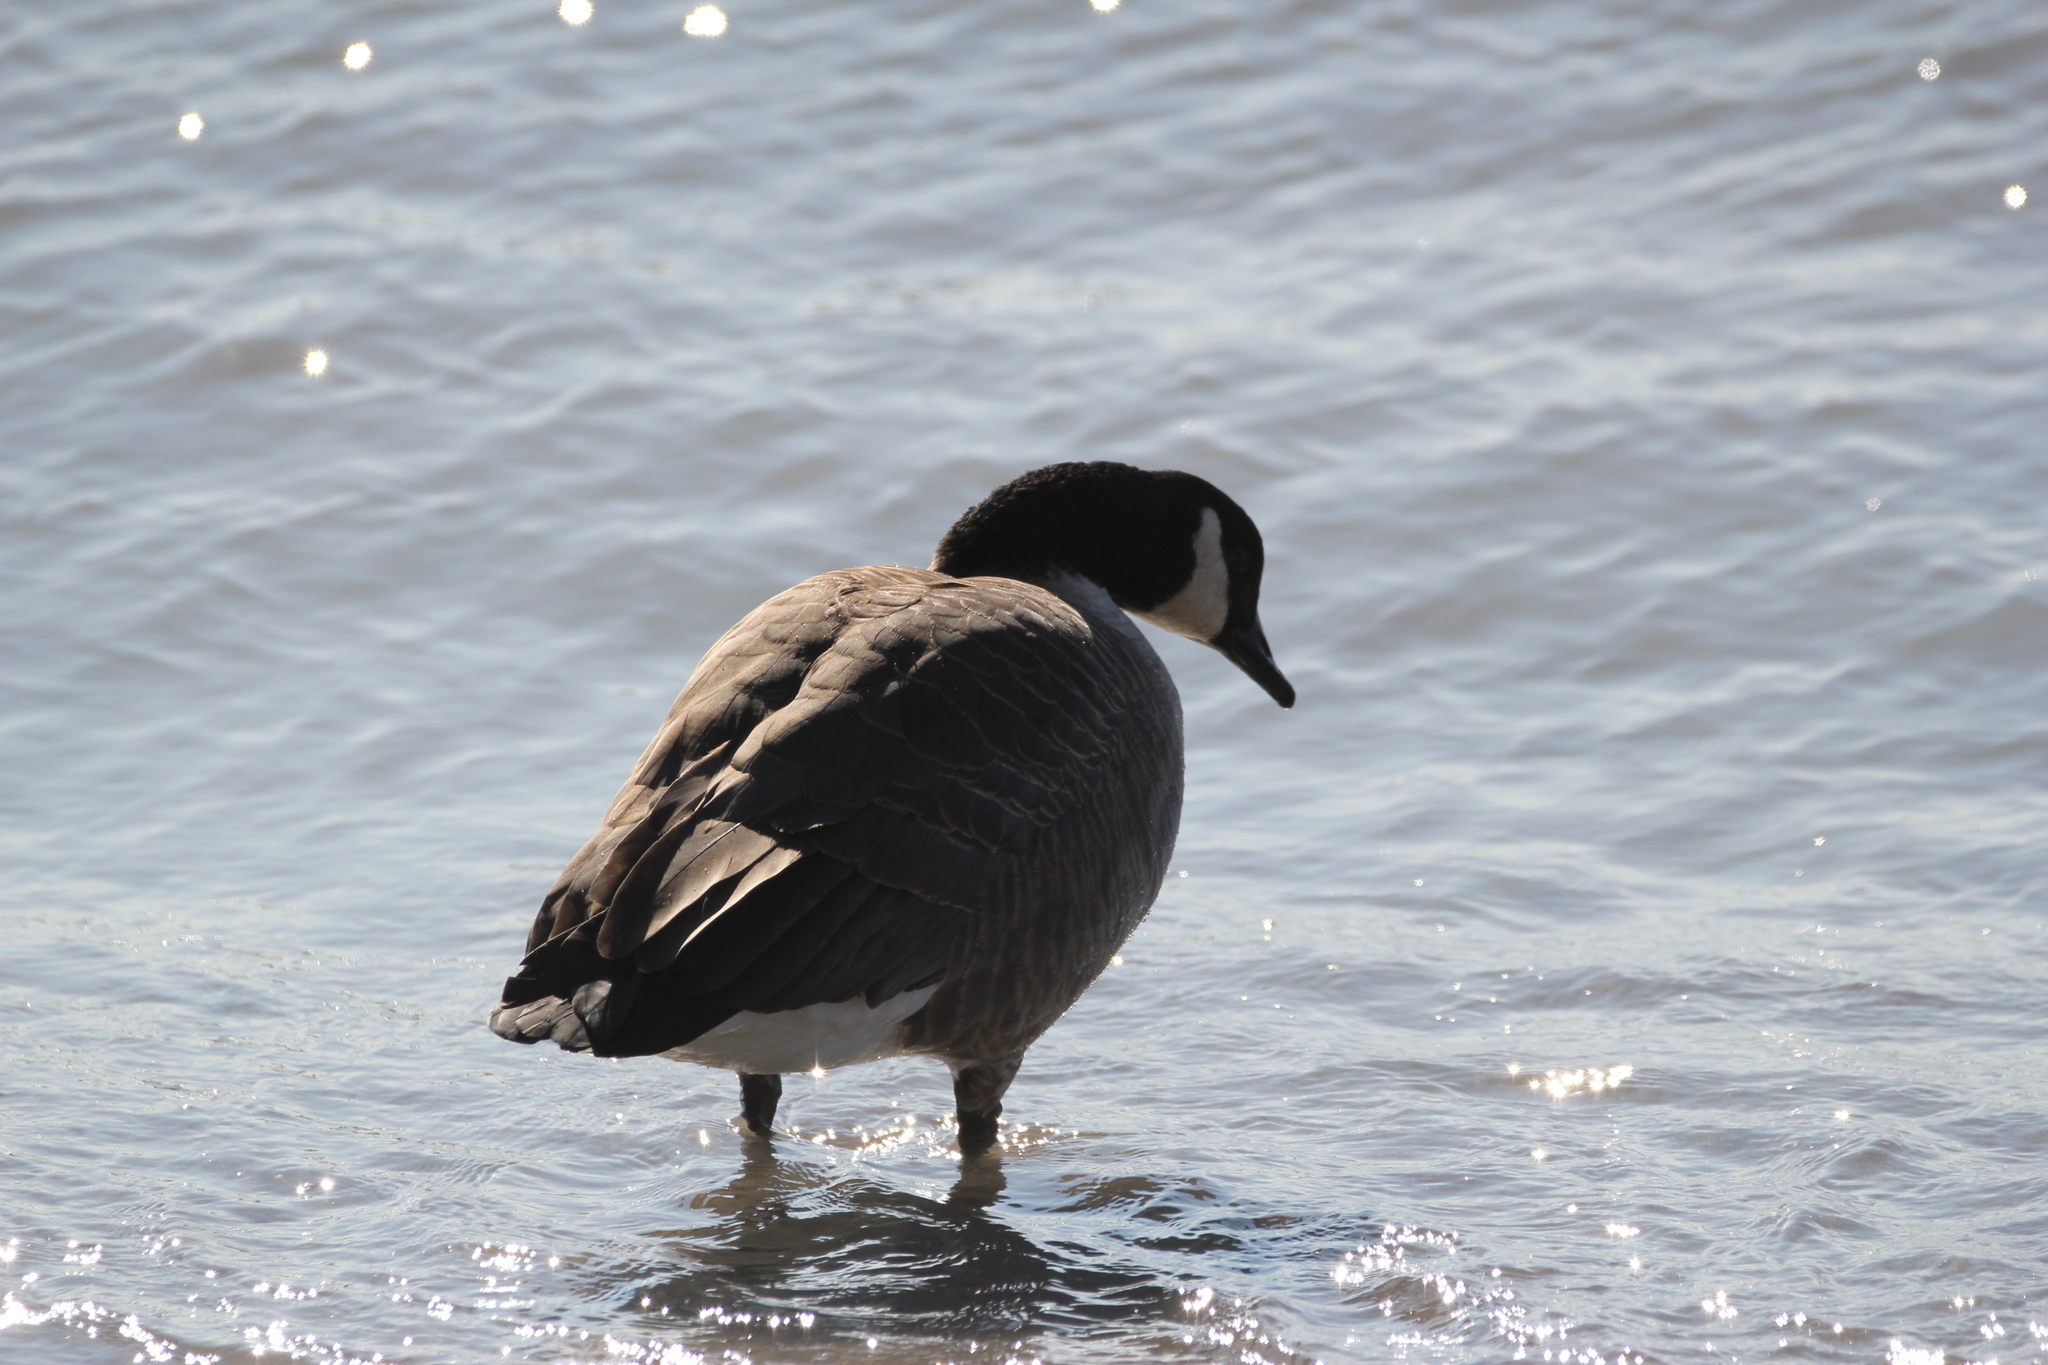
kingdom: Animalia
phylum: Chordata
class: Aves
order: Anseriformes
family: Anatidae
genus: Branta
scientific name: Branta canadensis
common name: Canada goose
